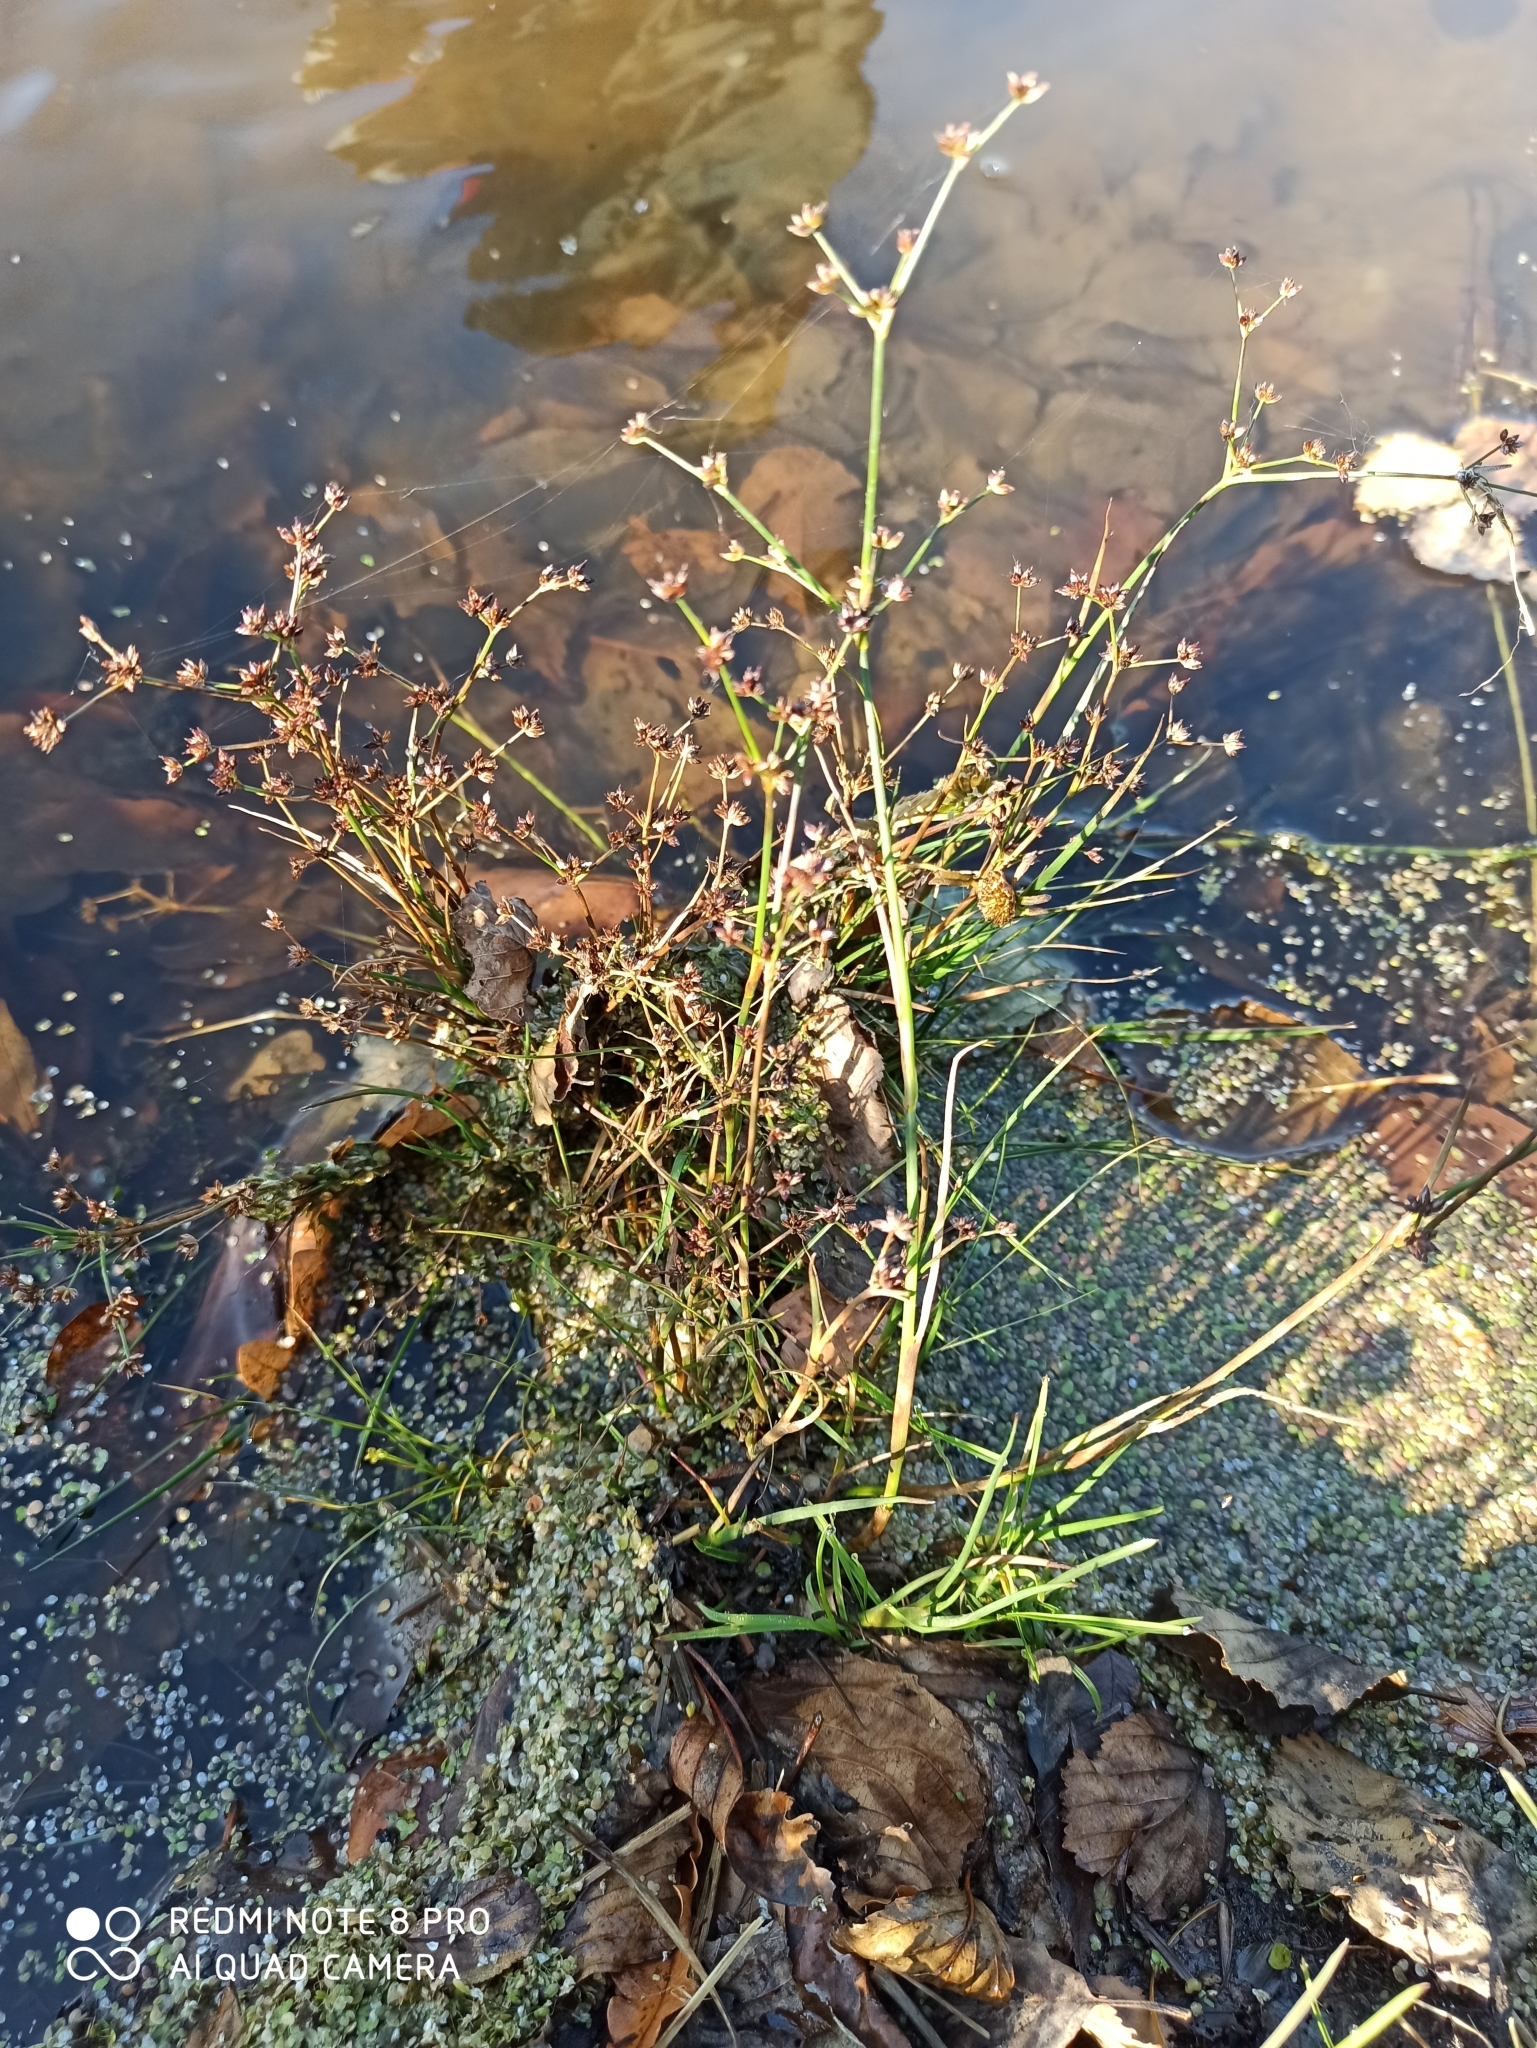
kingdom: Plantae
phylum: Tracheophyta
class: Liliopsida
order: Poales
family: Juncaceae
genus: Juncus
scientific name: Juncus articulatus
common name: Jointed rush
